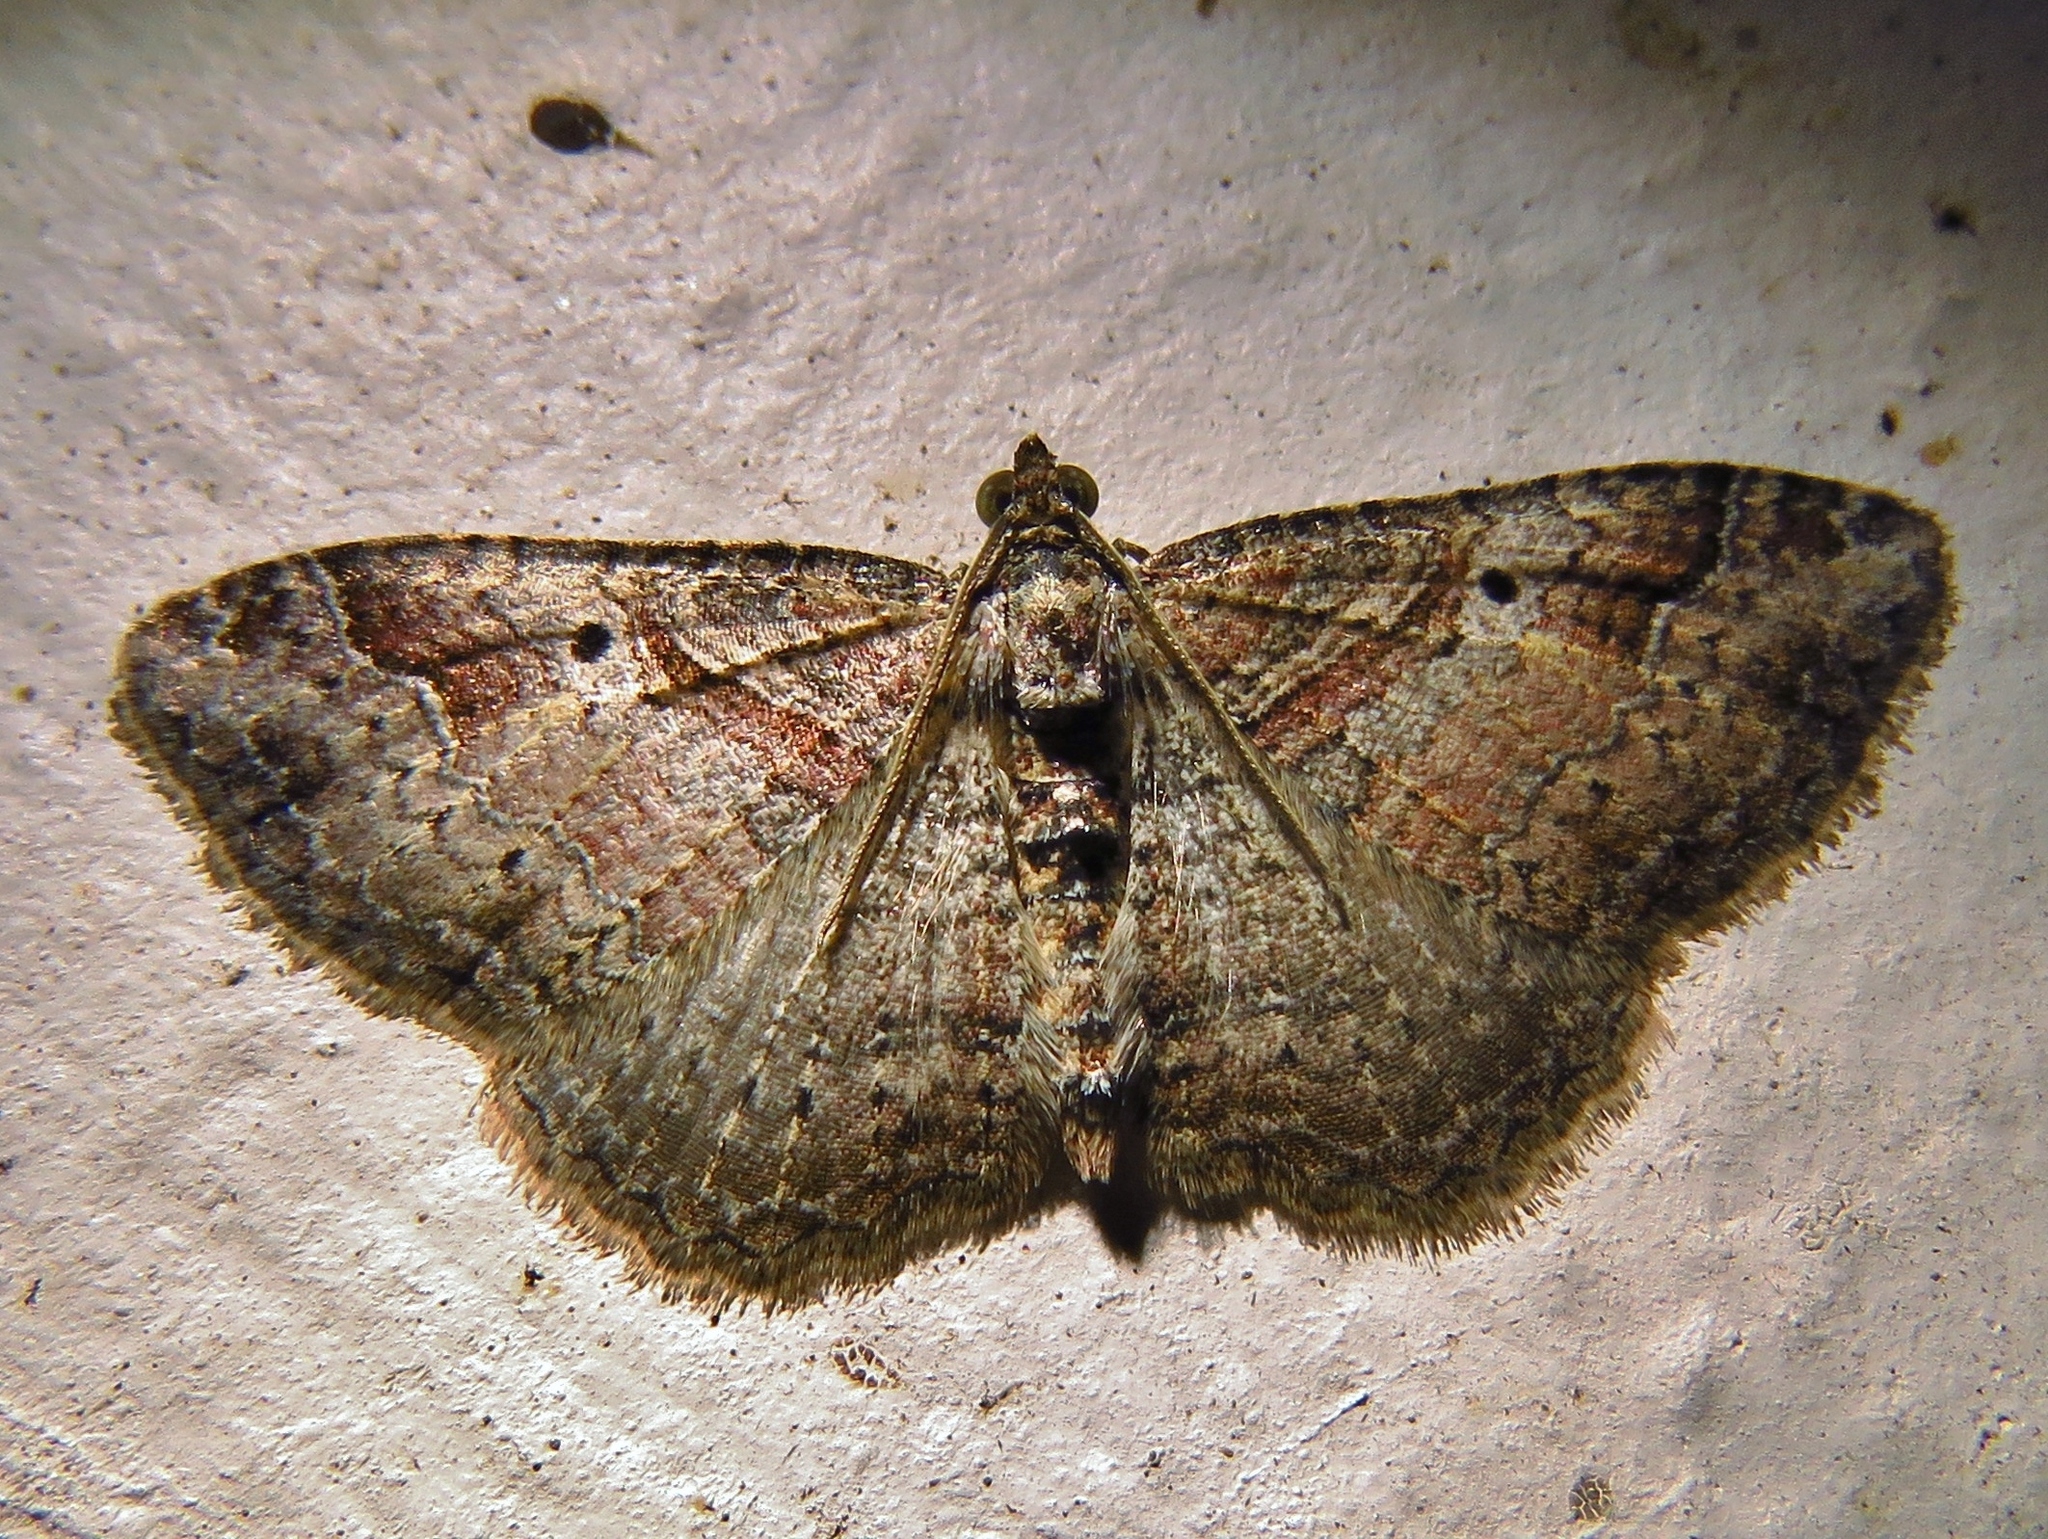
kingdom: Animalia
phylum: Arthropoda
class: Insecta
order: Lepidoptera
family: Geometridae
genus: Costaconvexa
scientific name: Costaconvexa centrostrigaria
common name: Bent-line carpet
